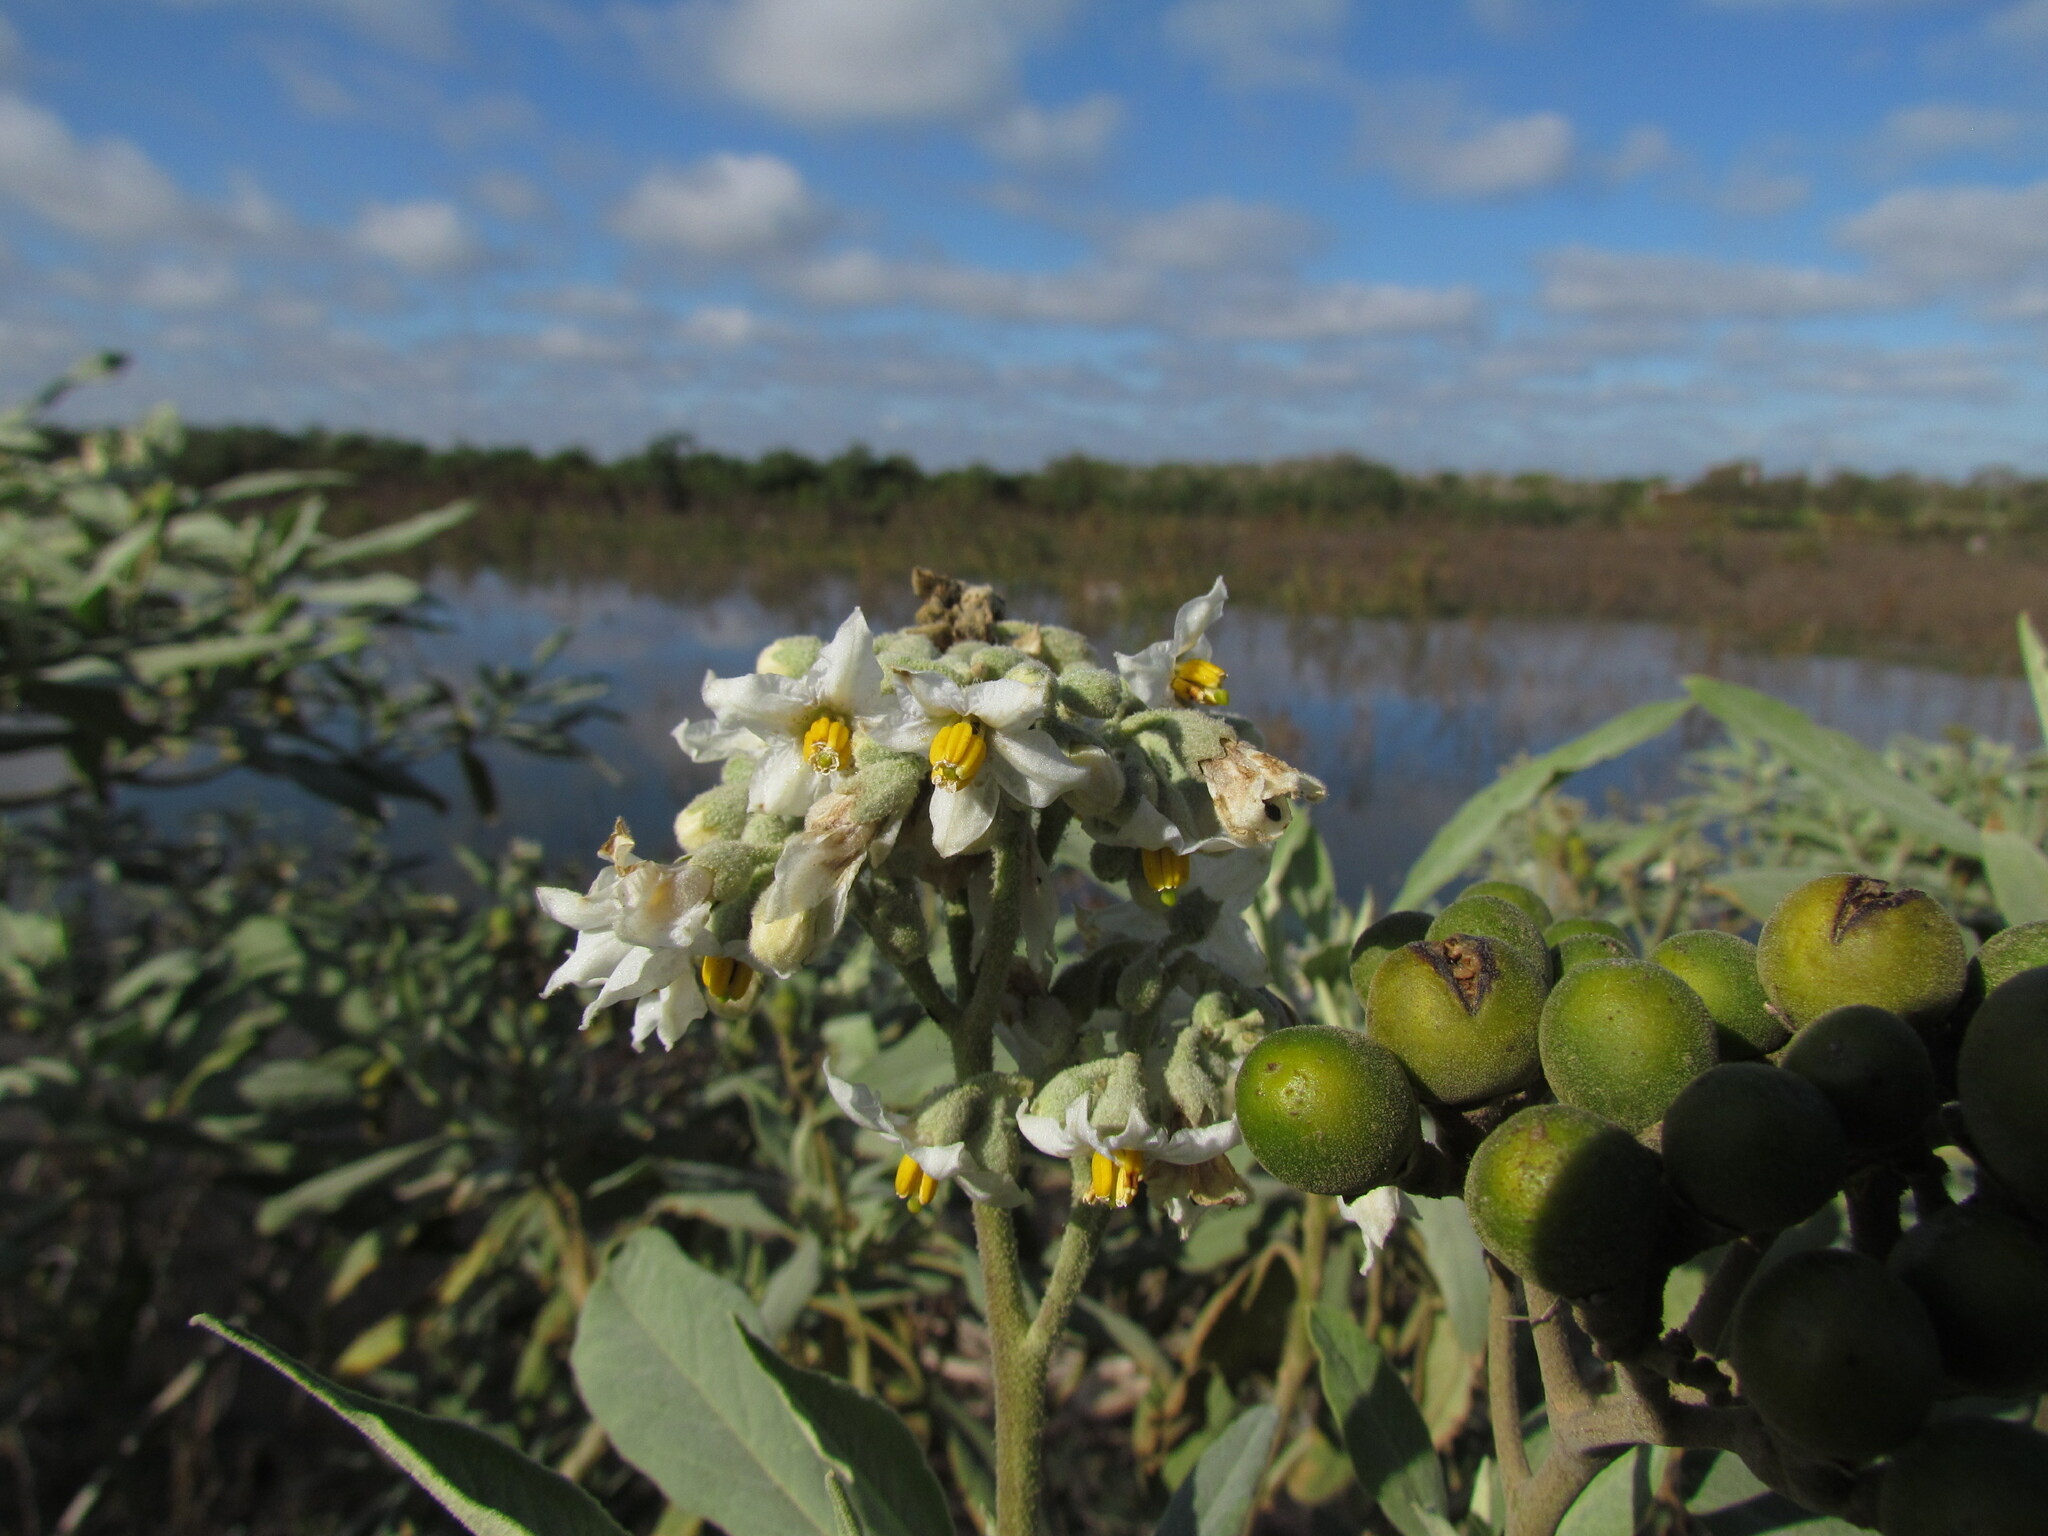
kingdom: Plantae
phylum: Tracheophyta
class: Magnoliopsida
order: Solanales
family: Solanaceae
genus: Solanum
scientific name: Solanum granulosoleprosum
